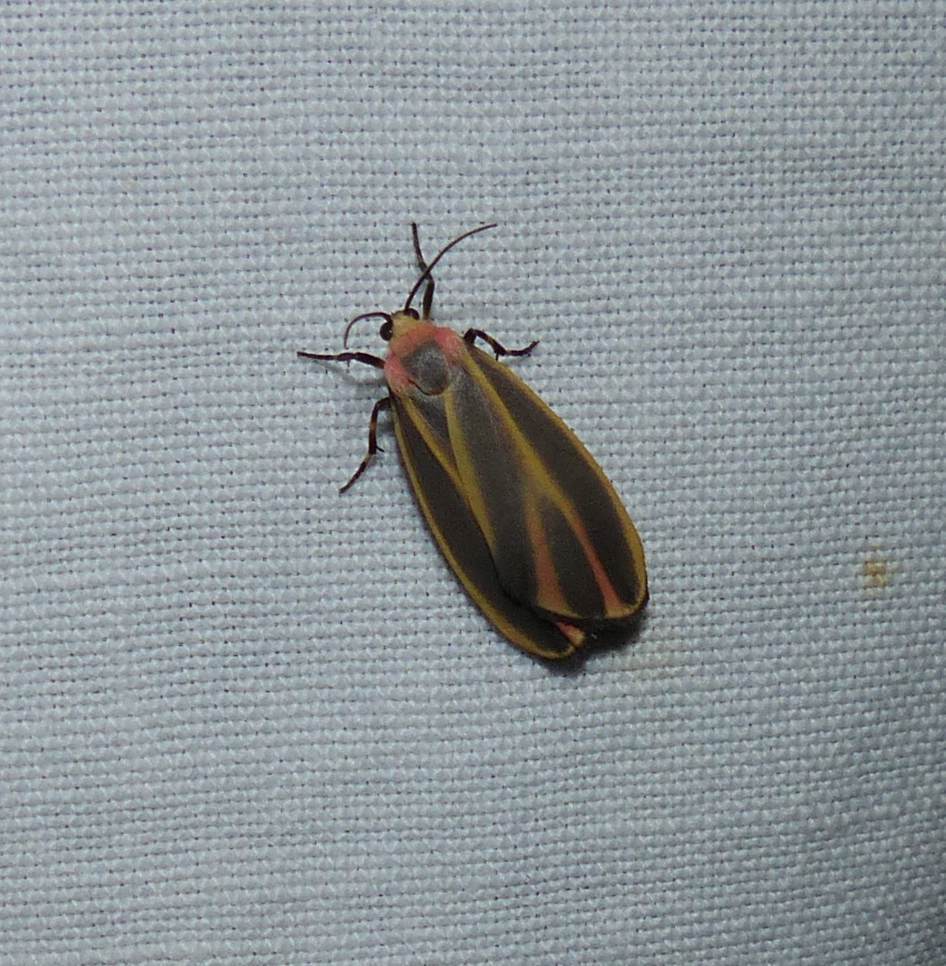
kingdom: Animalia
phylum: Arthropoda
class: Insecta
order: Lepidoptera
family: Erebidae
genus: Hypoprepia
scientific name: Hypoprepia fucosa
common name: Painted lichen moth
